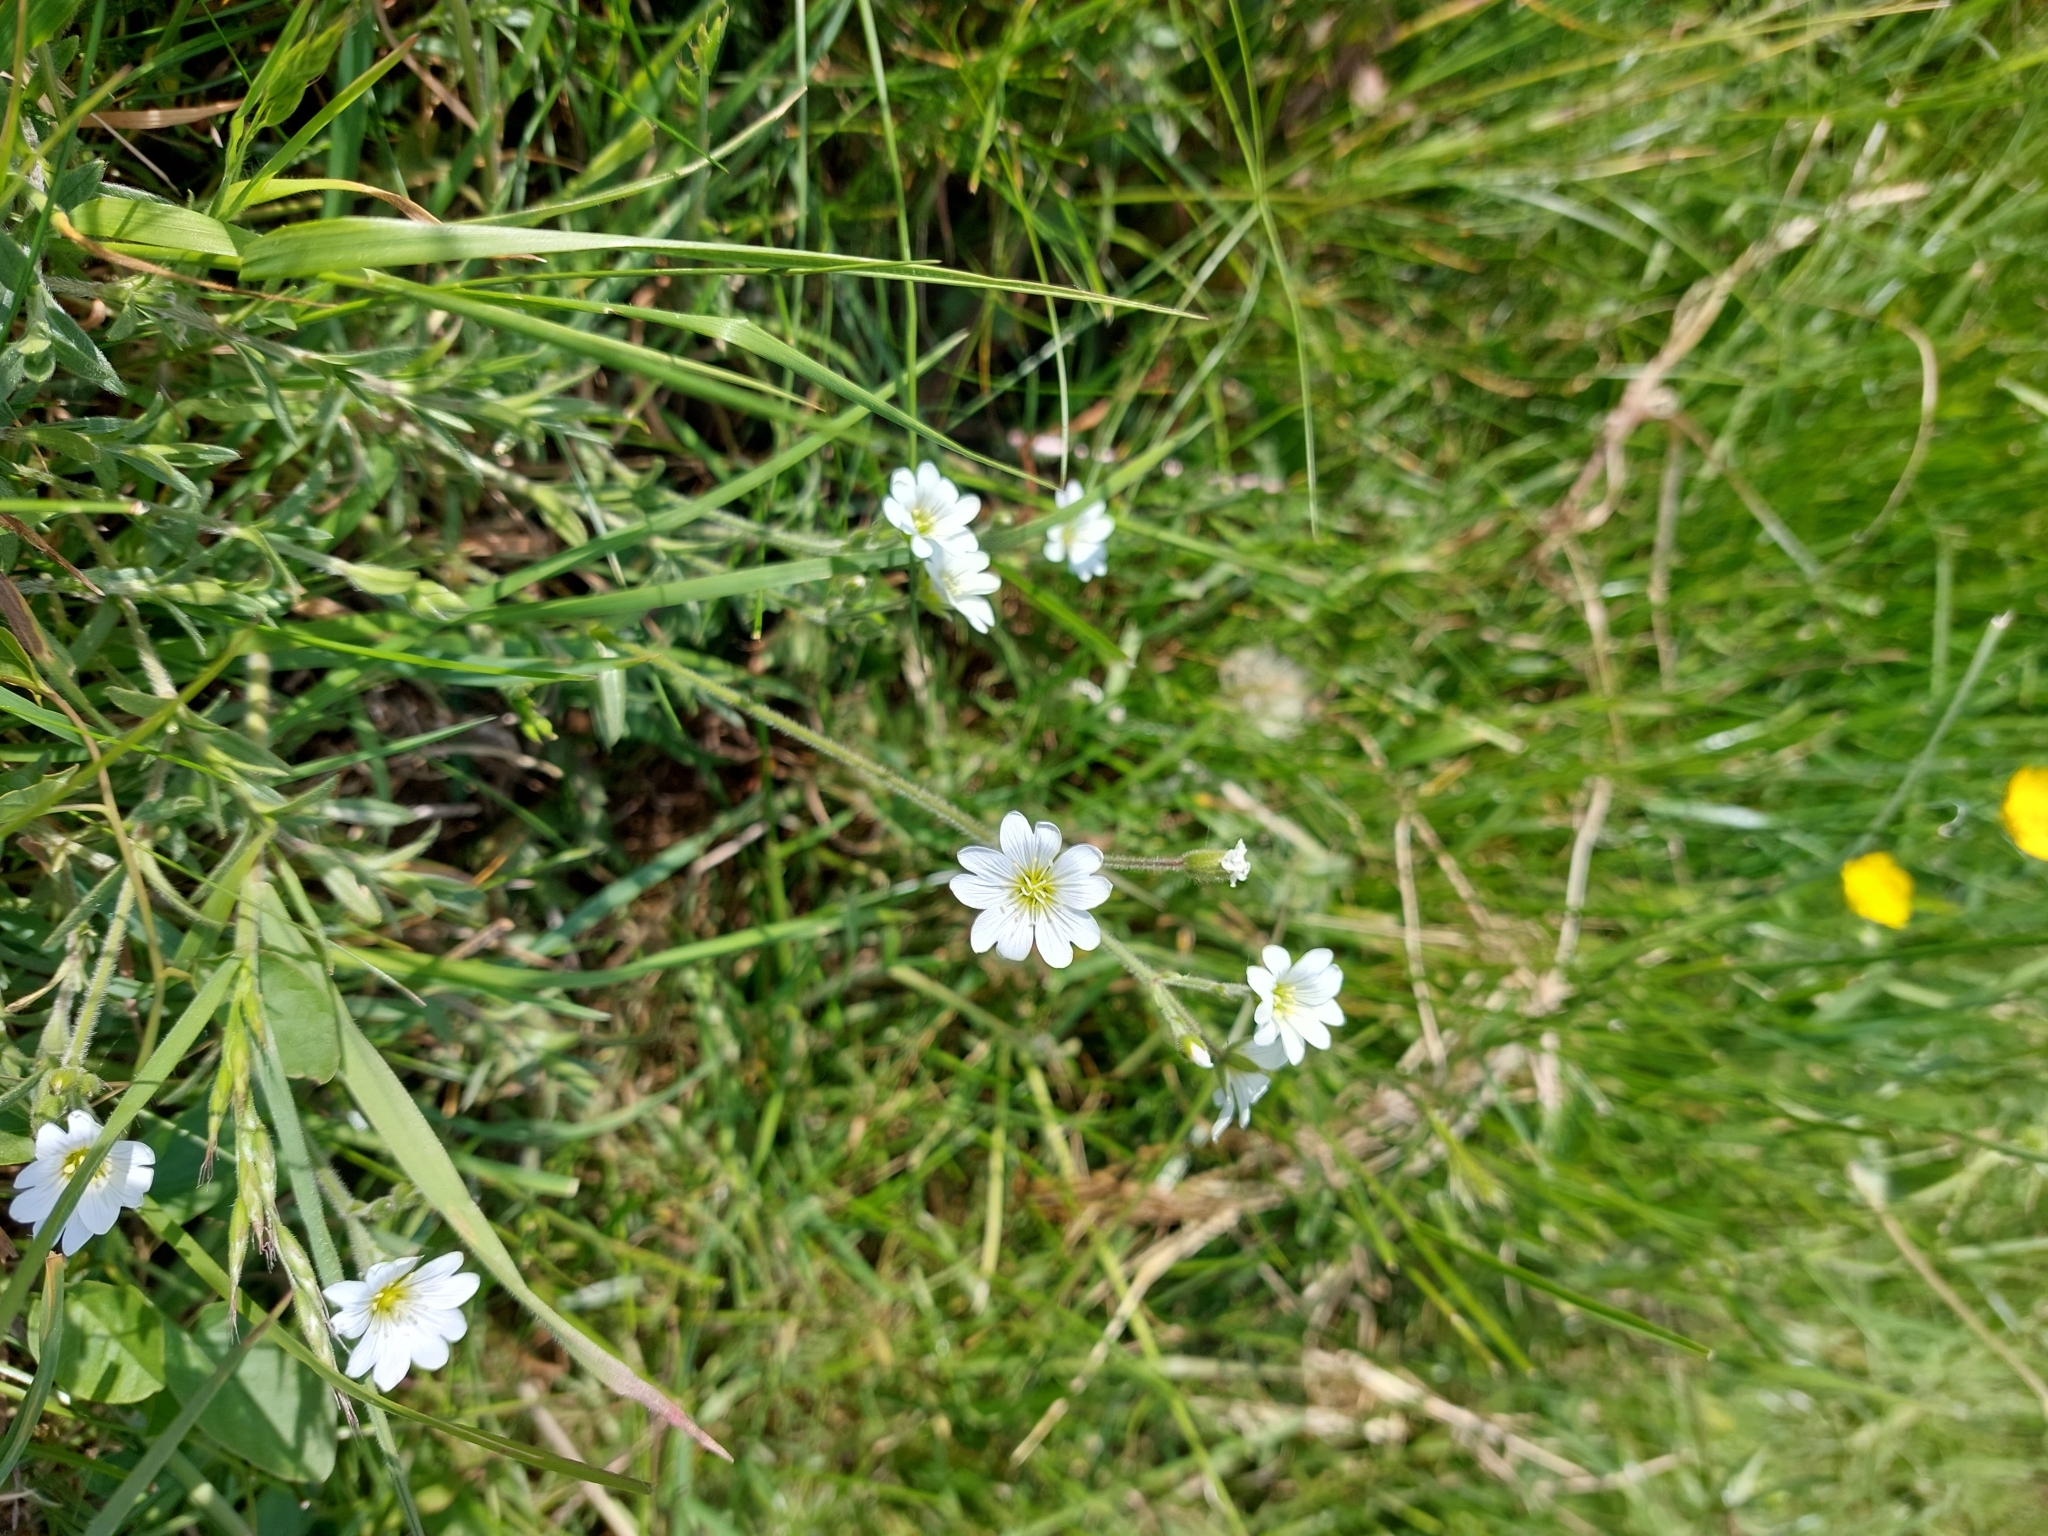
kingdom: Plantae
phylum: Tracheophyta
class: Magnoliopsida
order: Caryophyllales
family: Caryophyllaceae
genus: Rabelera
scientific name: Rabelera holostea
